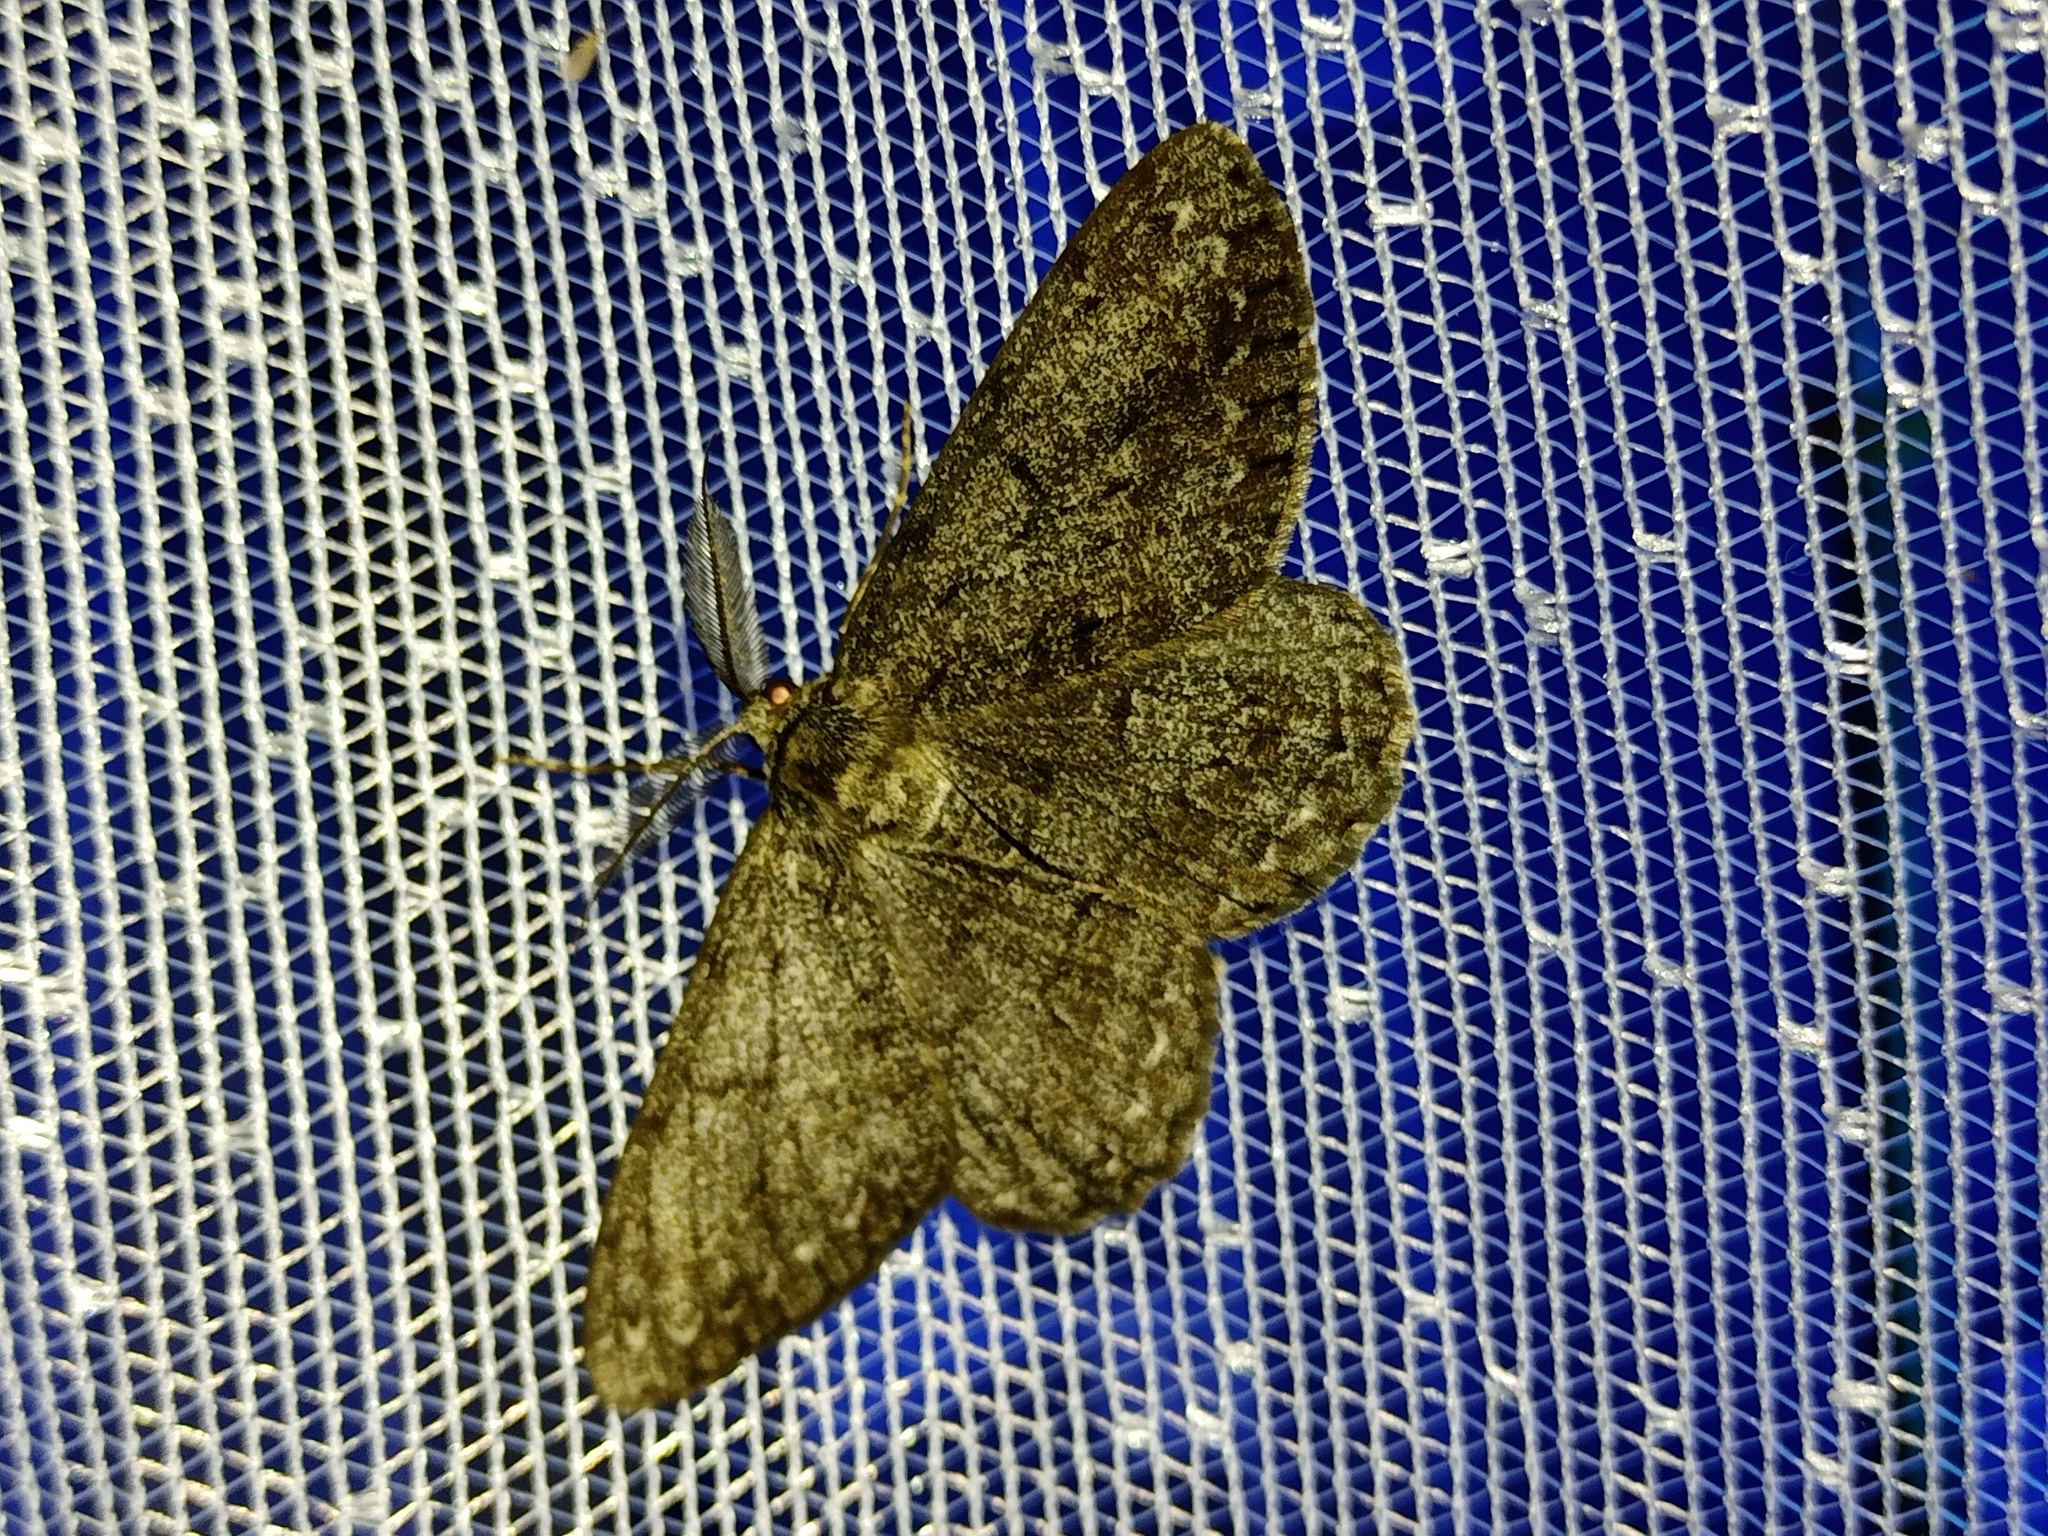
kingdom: Animalia
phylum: Arthropoda
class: Insecta
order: Lepidoptera
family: Geometridae
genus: Hypomecis
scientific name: Hypomecis roboraria
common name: Great oak beauty
